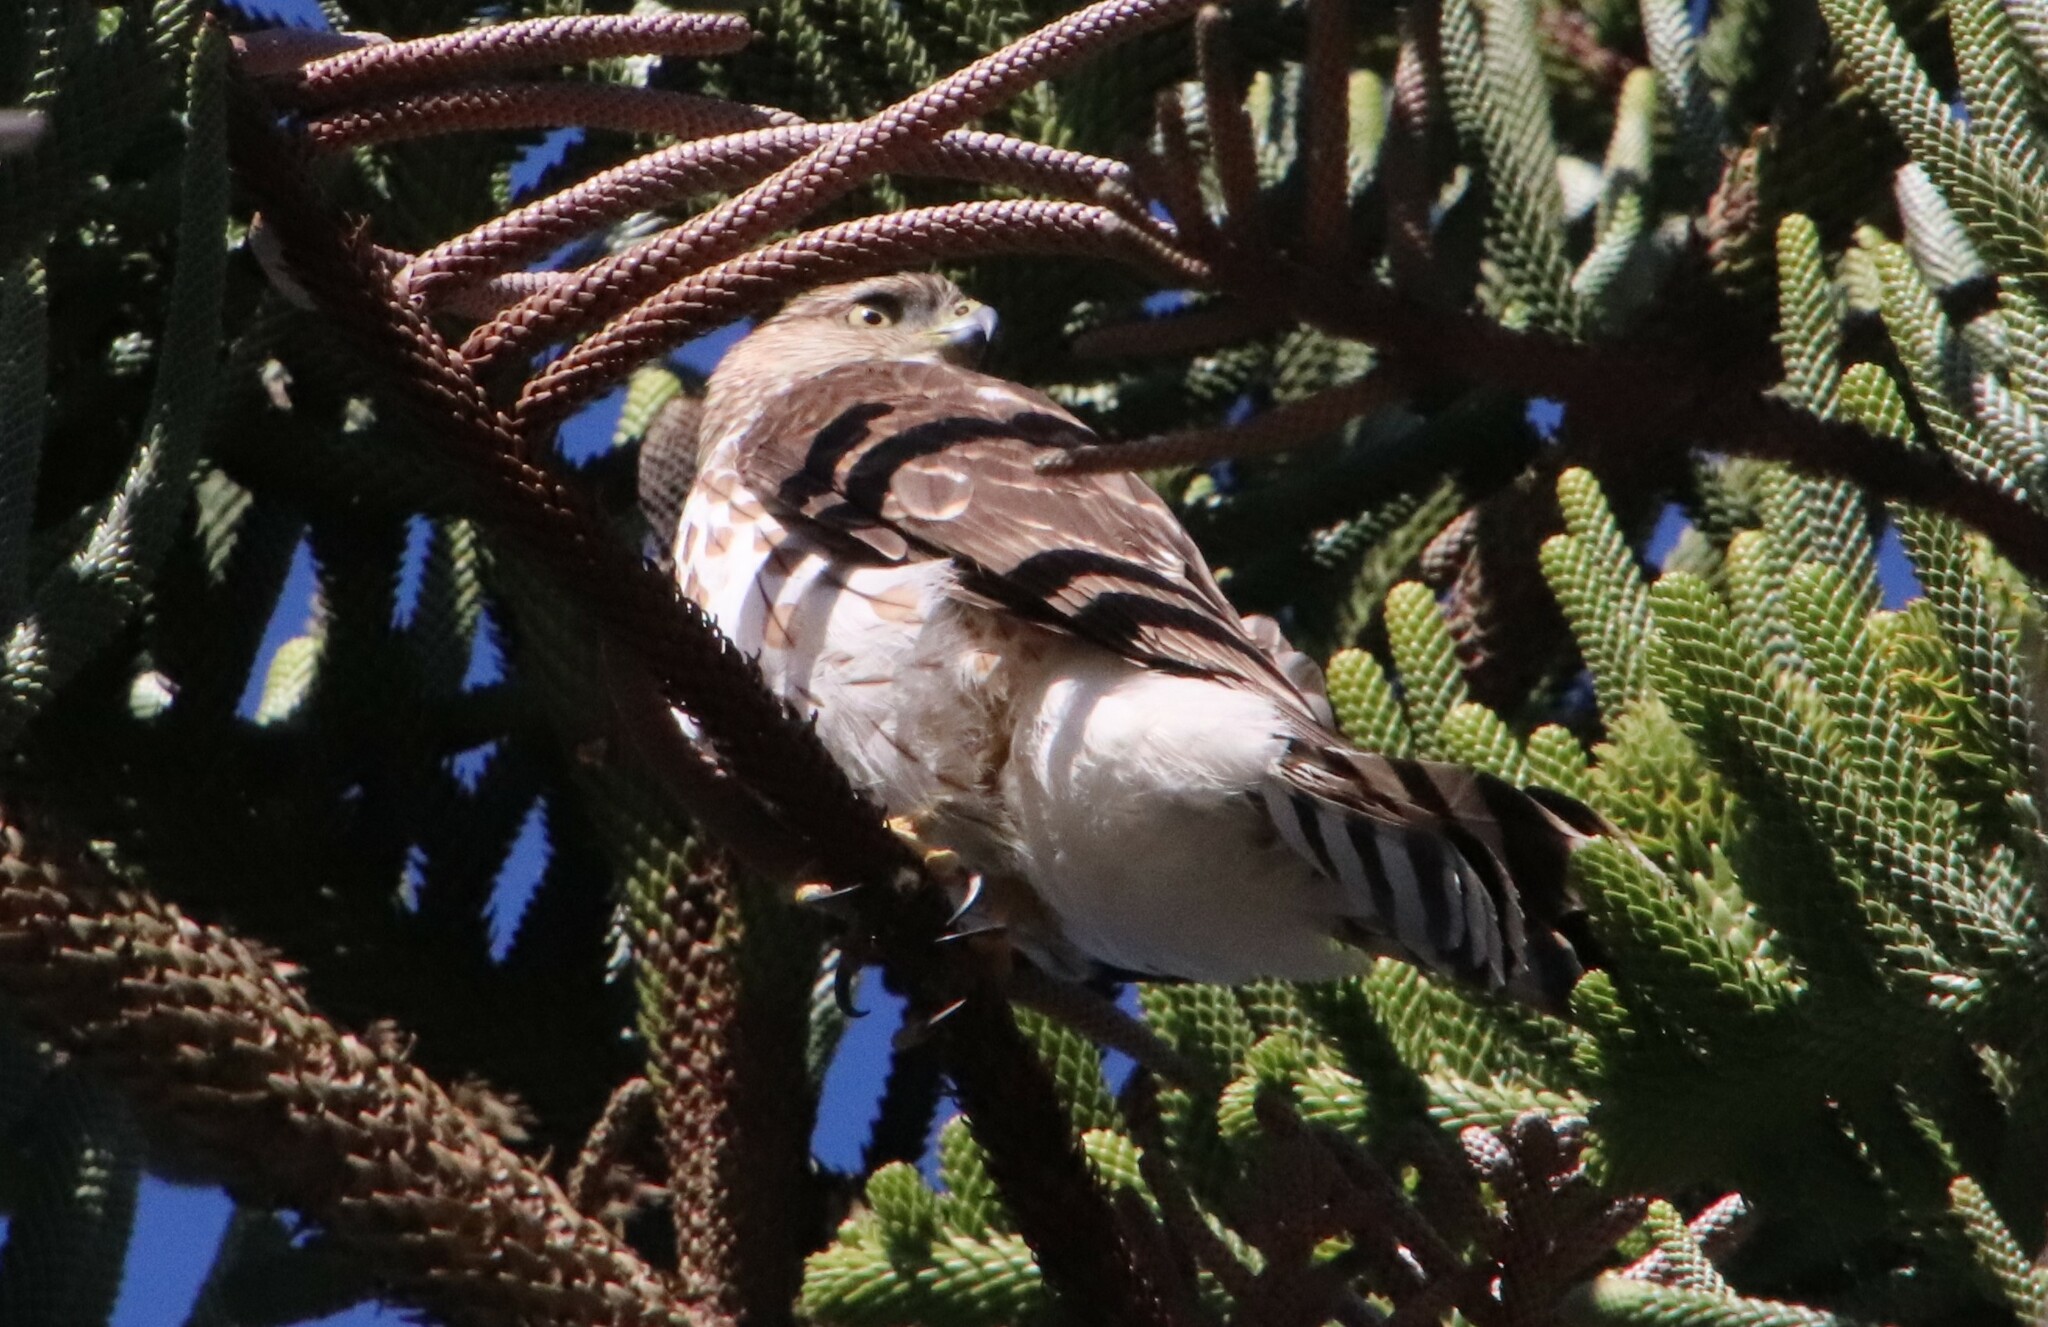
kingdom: Animalia
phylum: Chordata
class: Aves
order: Accipitriformes
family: Accipitridae
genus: Accipiter
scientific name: Accipiter cooperii
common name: Cooper's hawk
